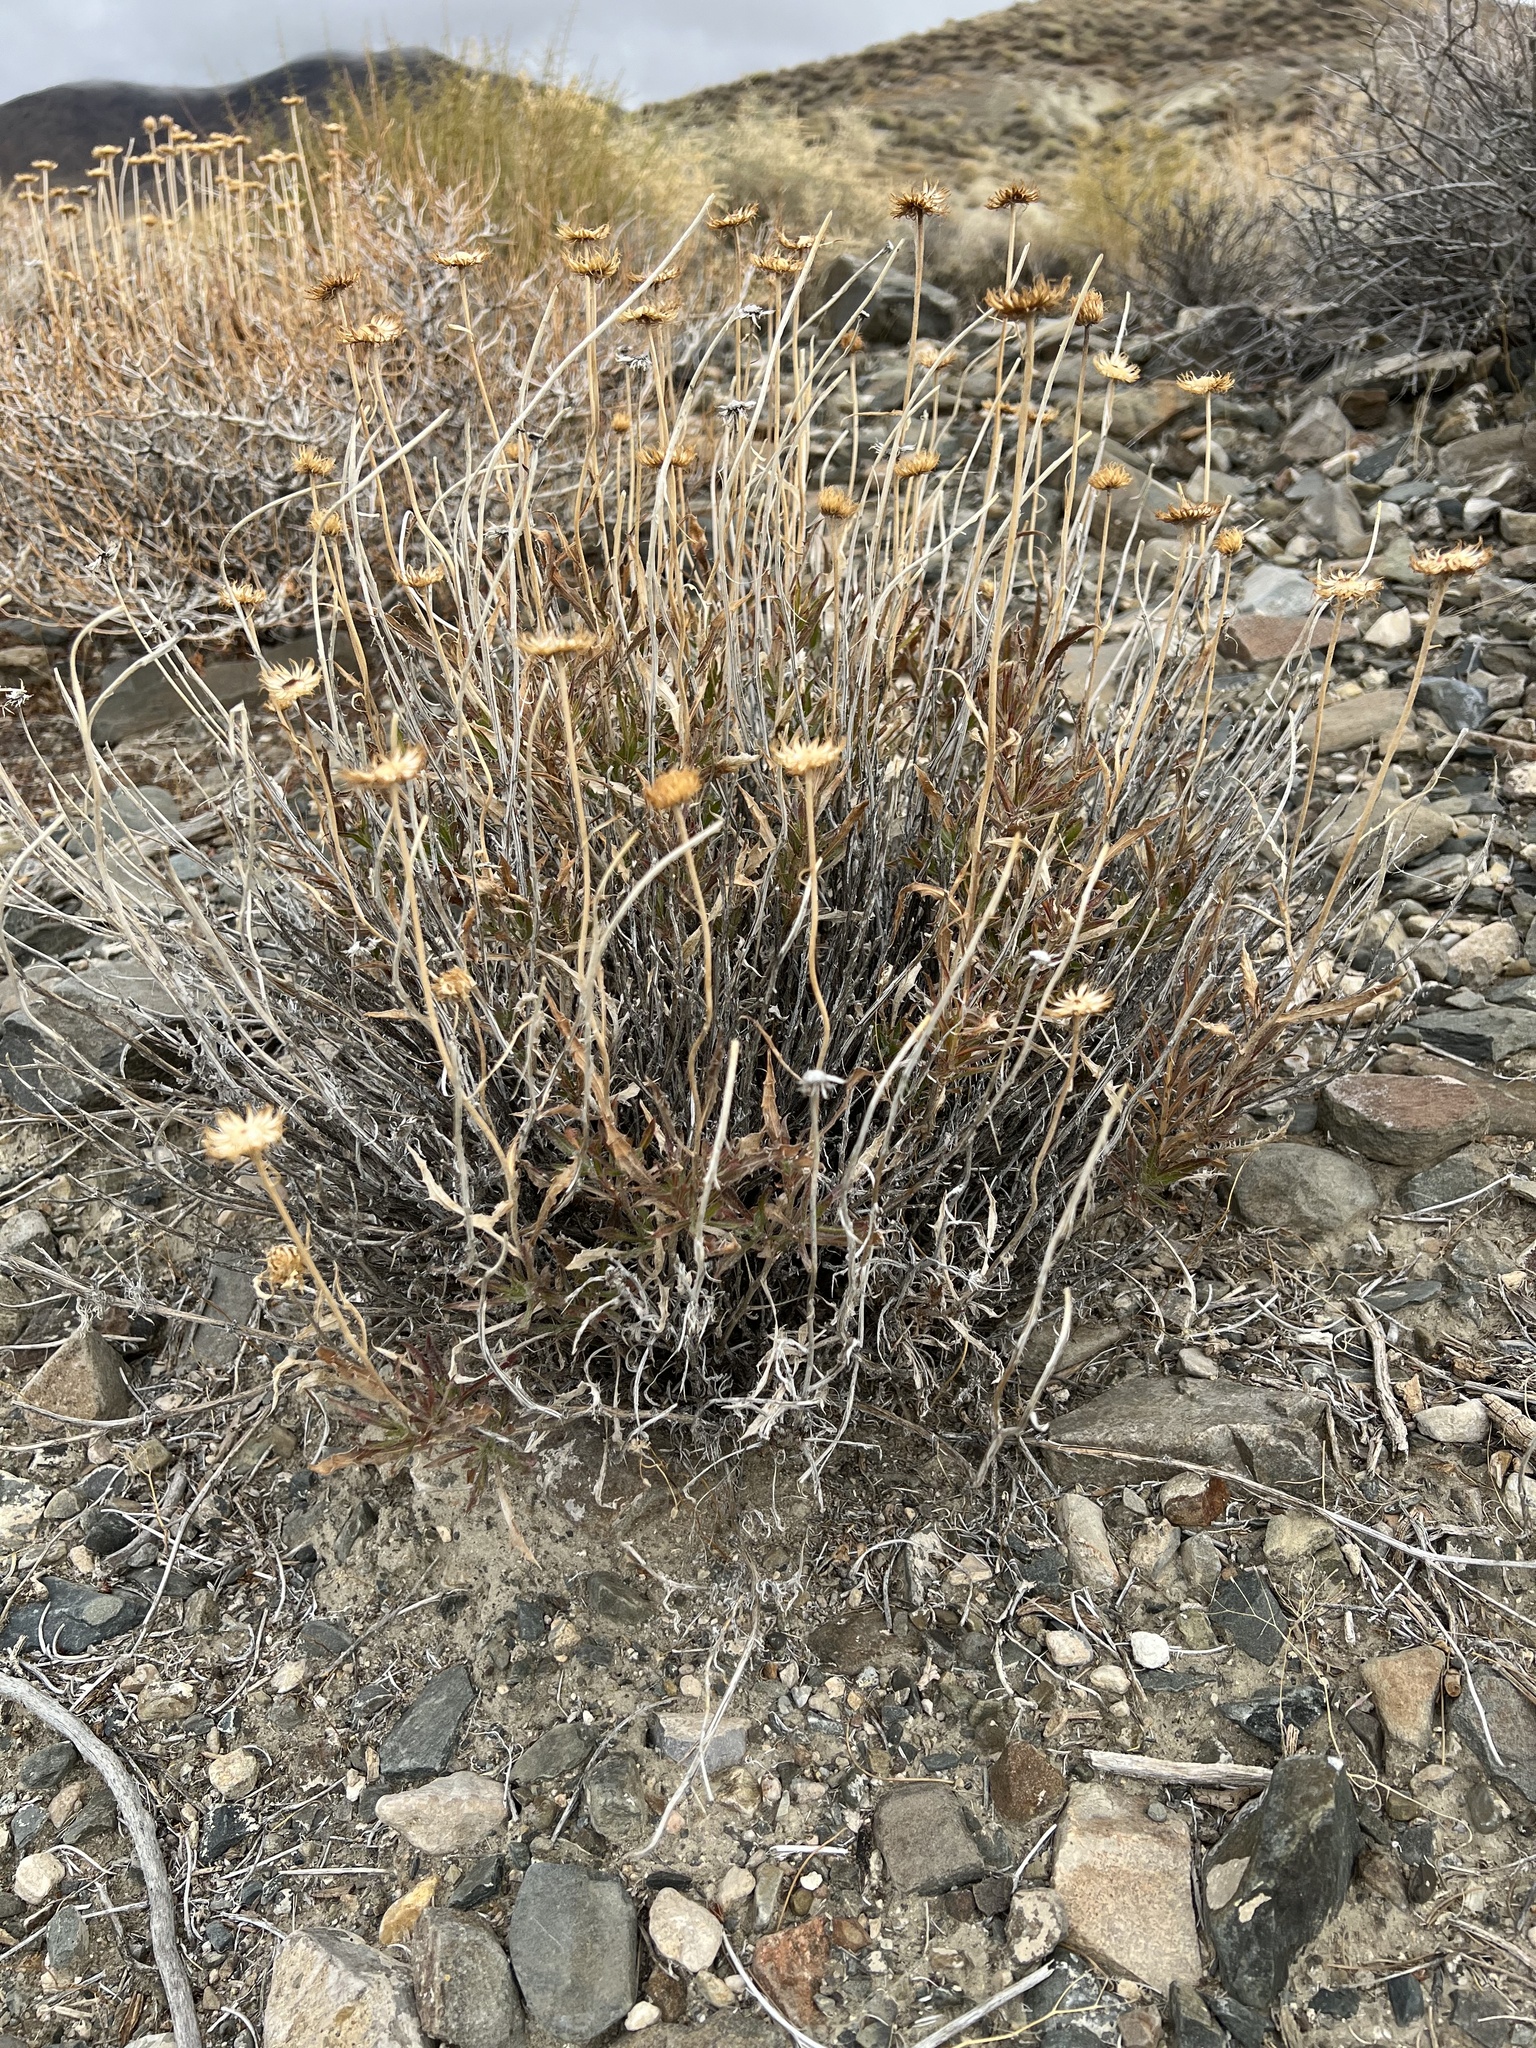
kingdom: Plantae
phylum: Tracheophyta
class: Magnoliopsida
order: Asterales
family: Asteraceae
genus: Xylorhiza
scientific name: Xylorhiza tortifolia
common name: Hurt-leaf woody-aster
